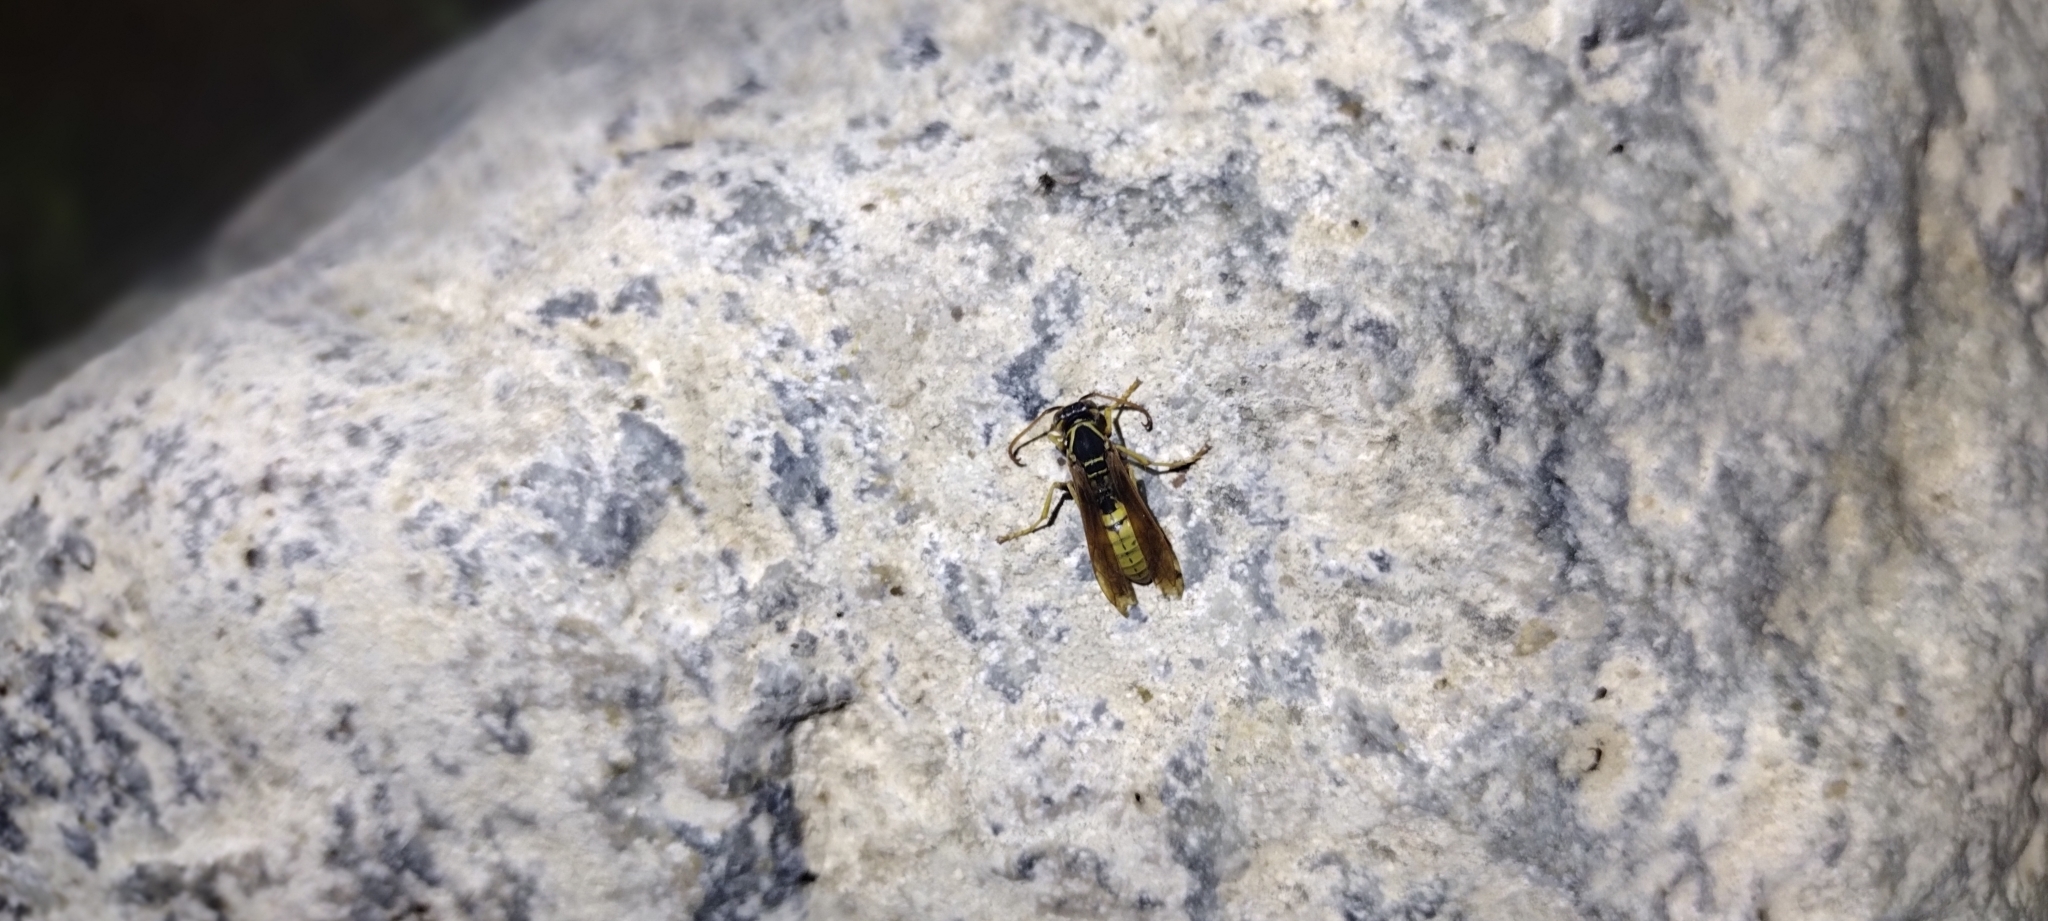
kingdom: Animalia
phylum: Arthropoda
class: Insecta
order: Hymenoptera
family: Eumenidae
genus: Polistes
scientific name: Polistes aurifer
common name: Paper wasp
